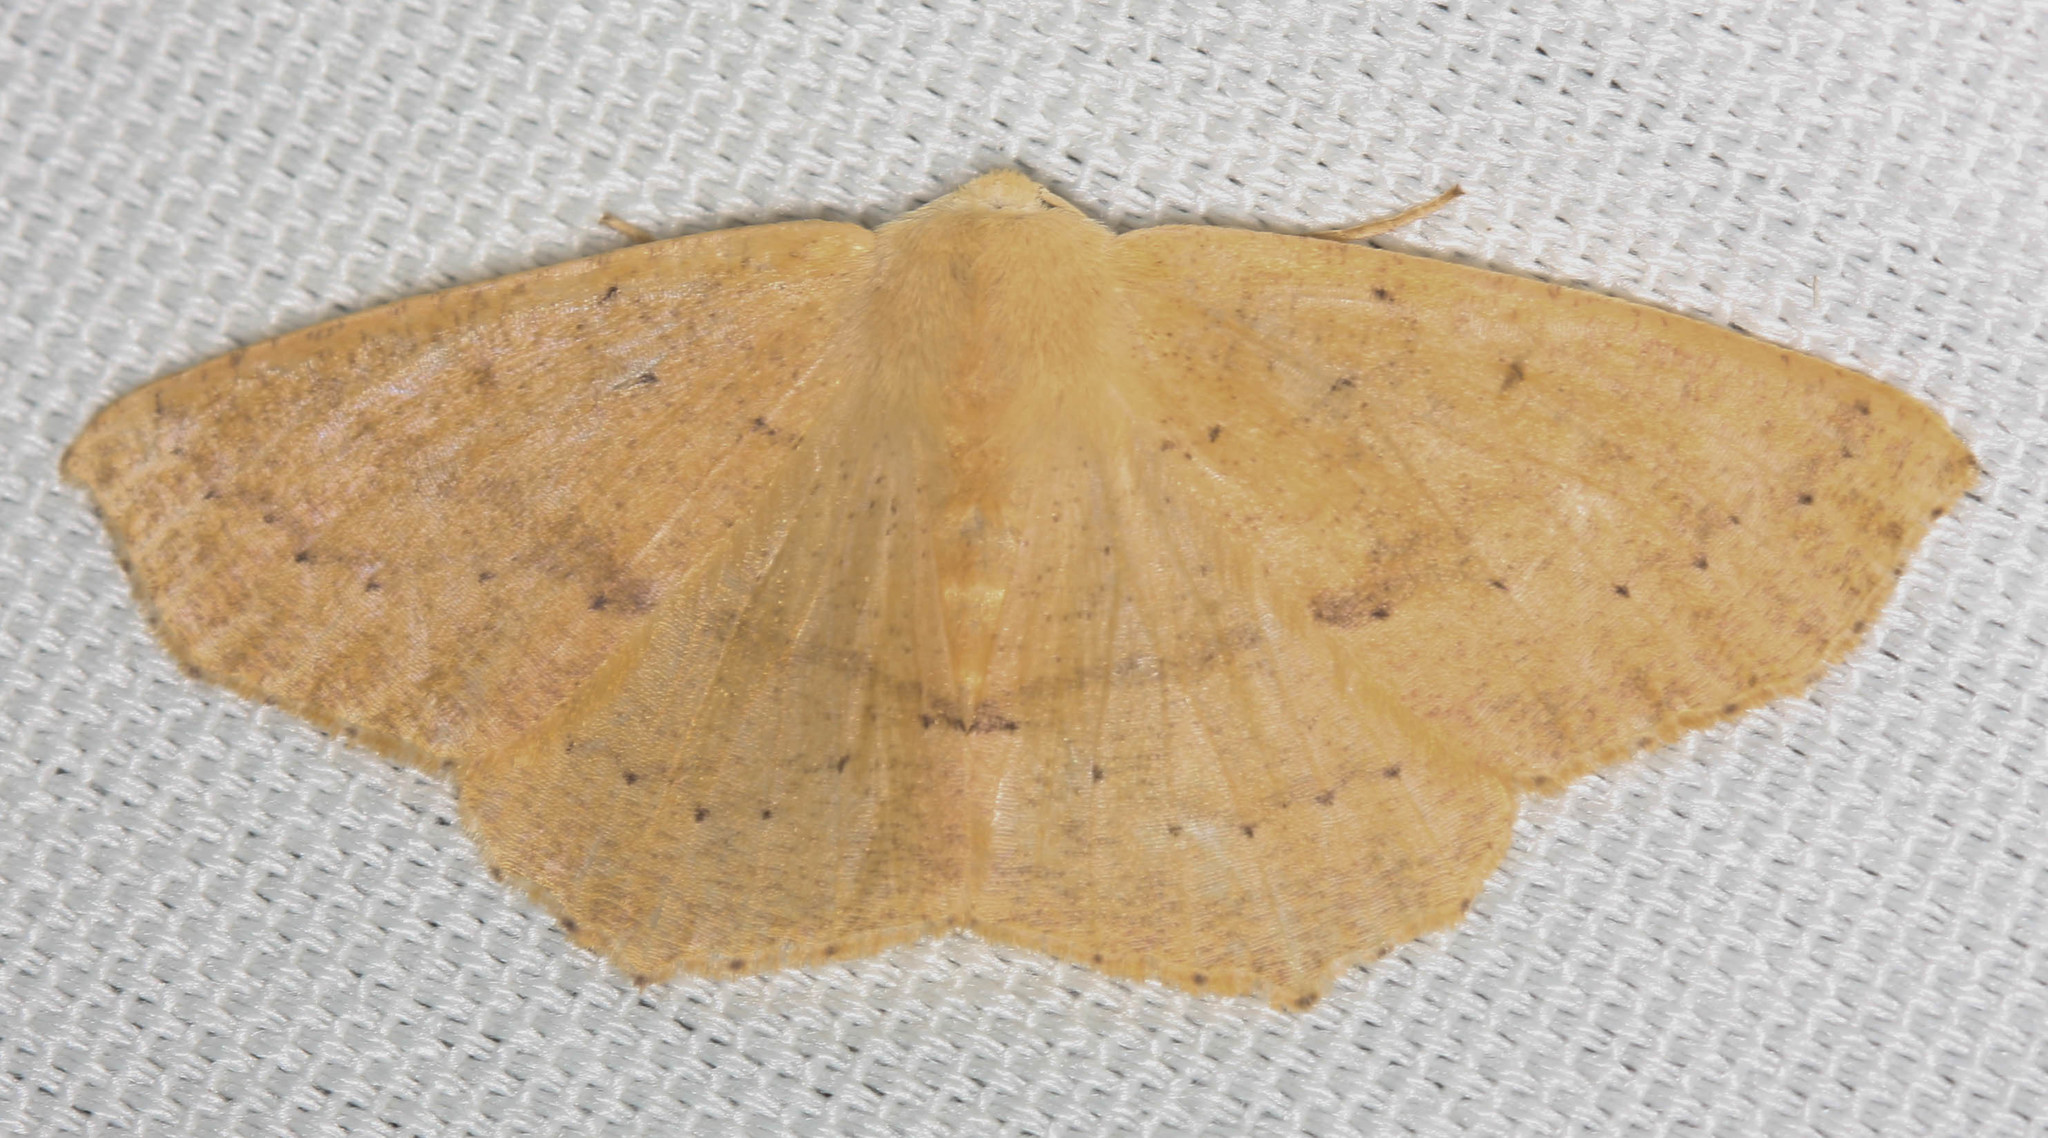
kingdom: Animalia
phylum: Arthropoda
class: Insecta
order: Lepidoptera
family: Geometridae
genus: Sabulodes
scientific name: Sabulodes aegrotata
